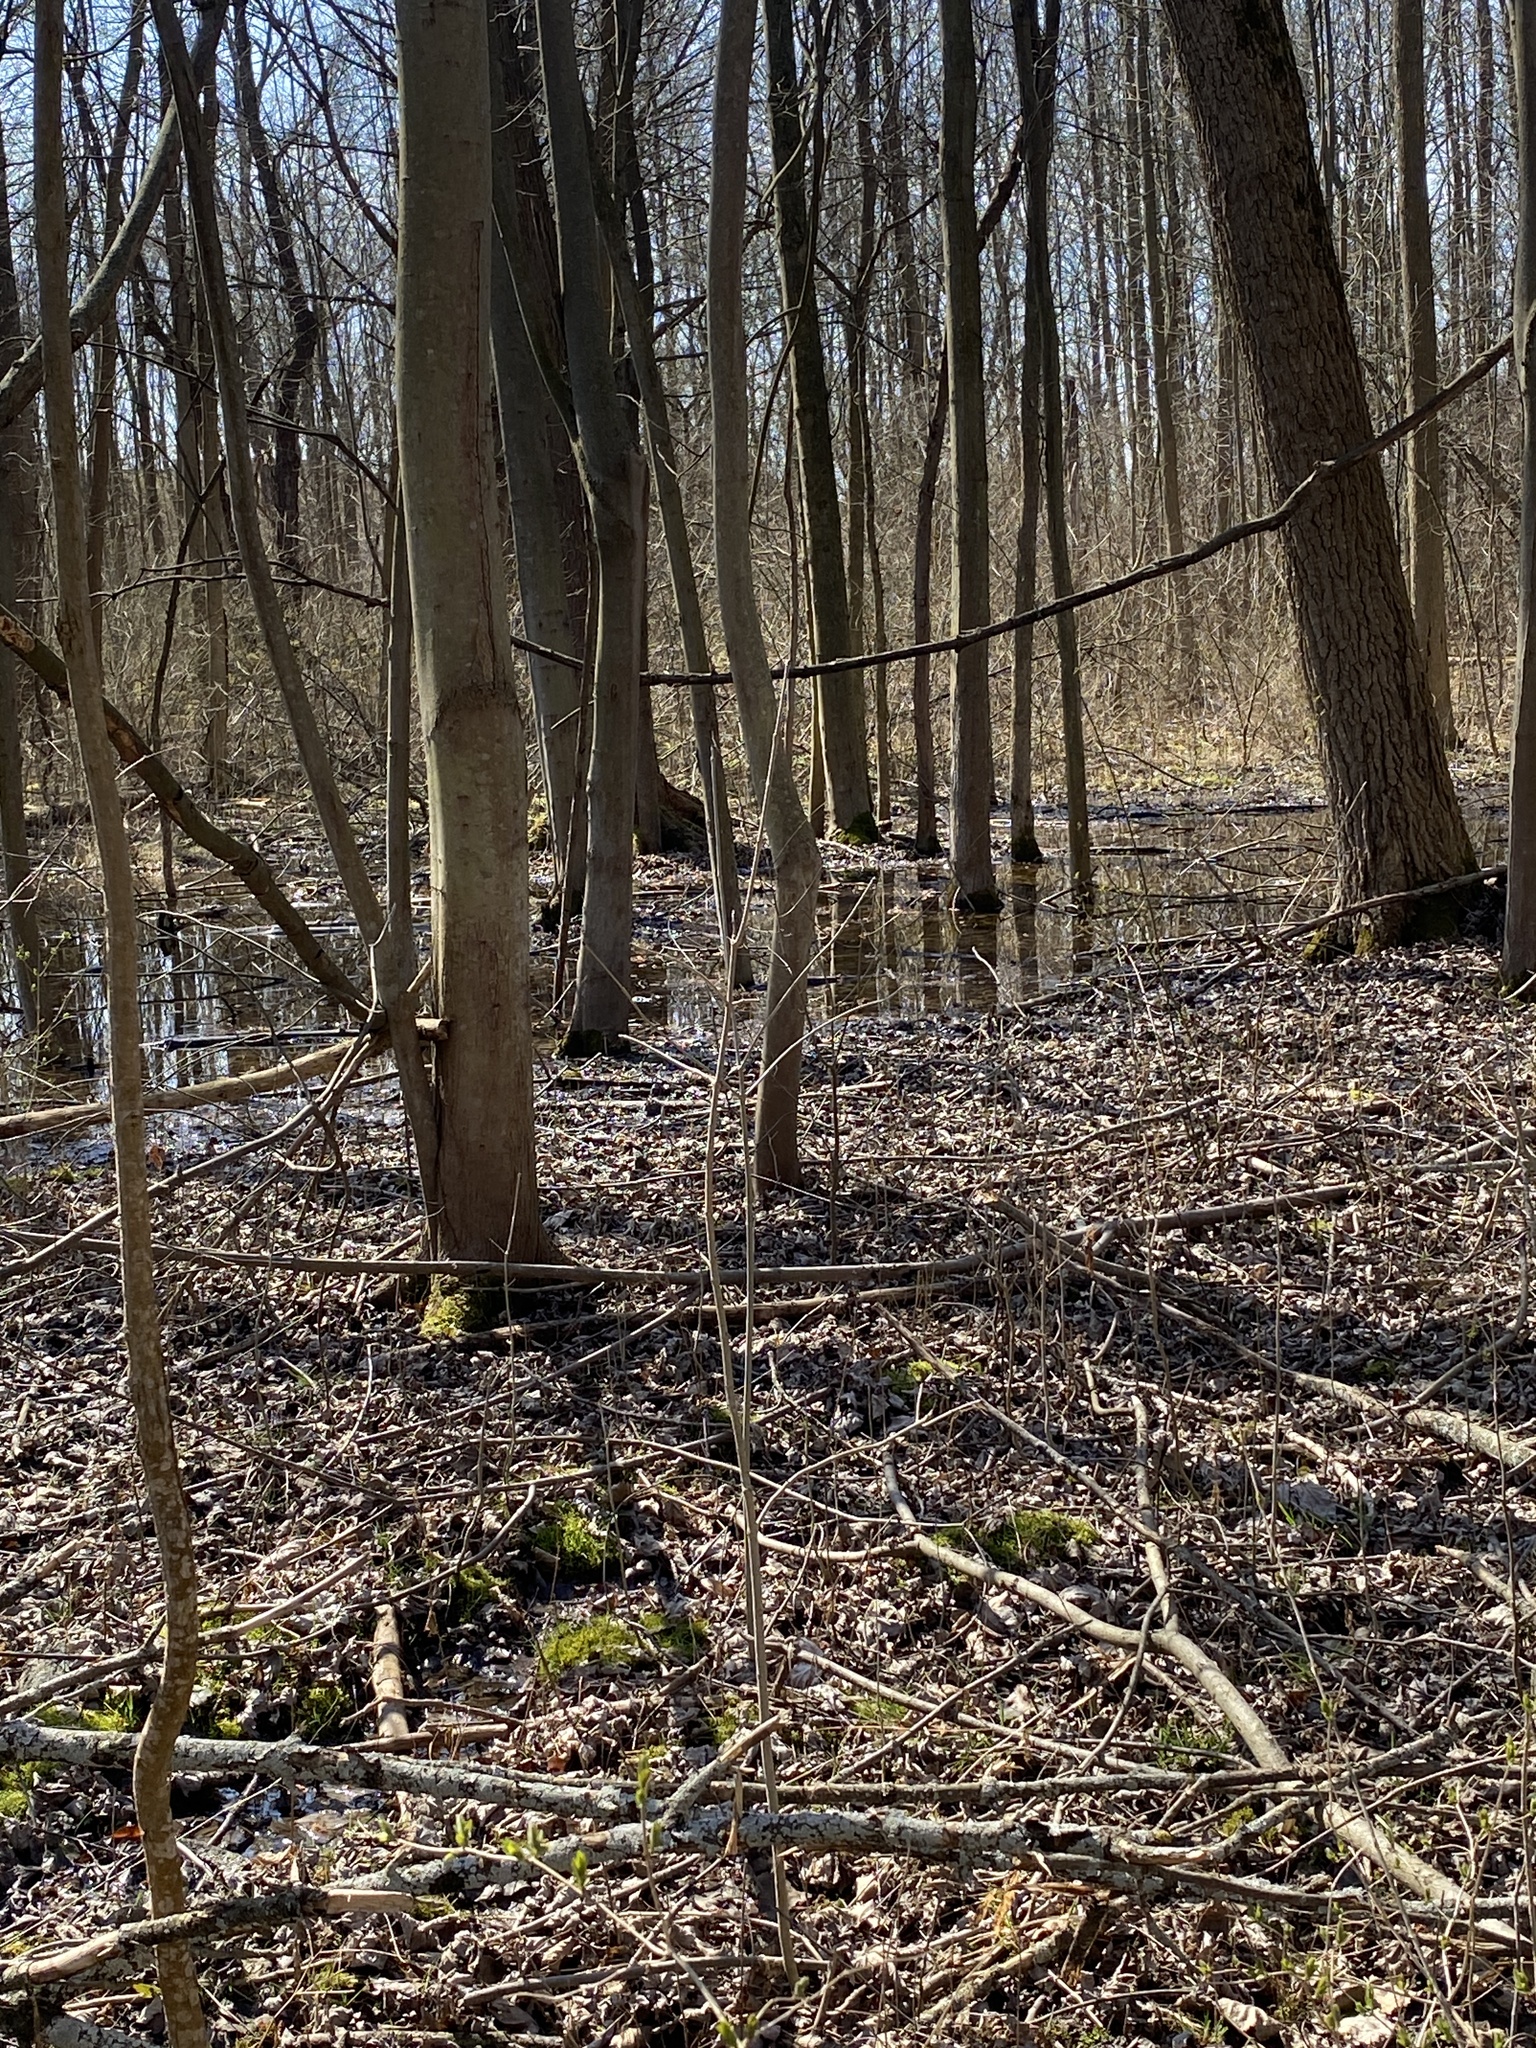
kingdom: Plantae
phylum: Tracheophyta
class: Liliopsida
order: Asparagales
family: Amaryllidaceae
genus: Galanthus
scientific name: Galanthus nivalis
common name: Snowdrop
